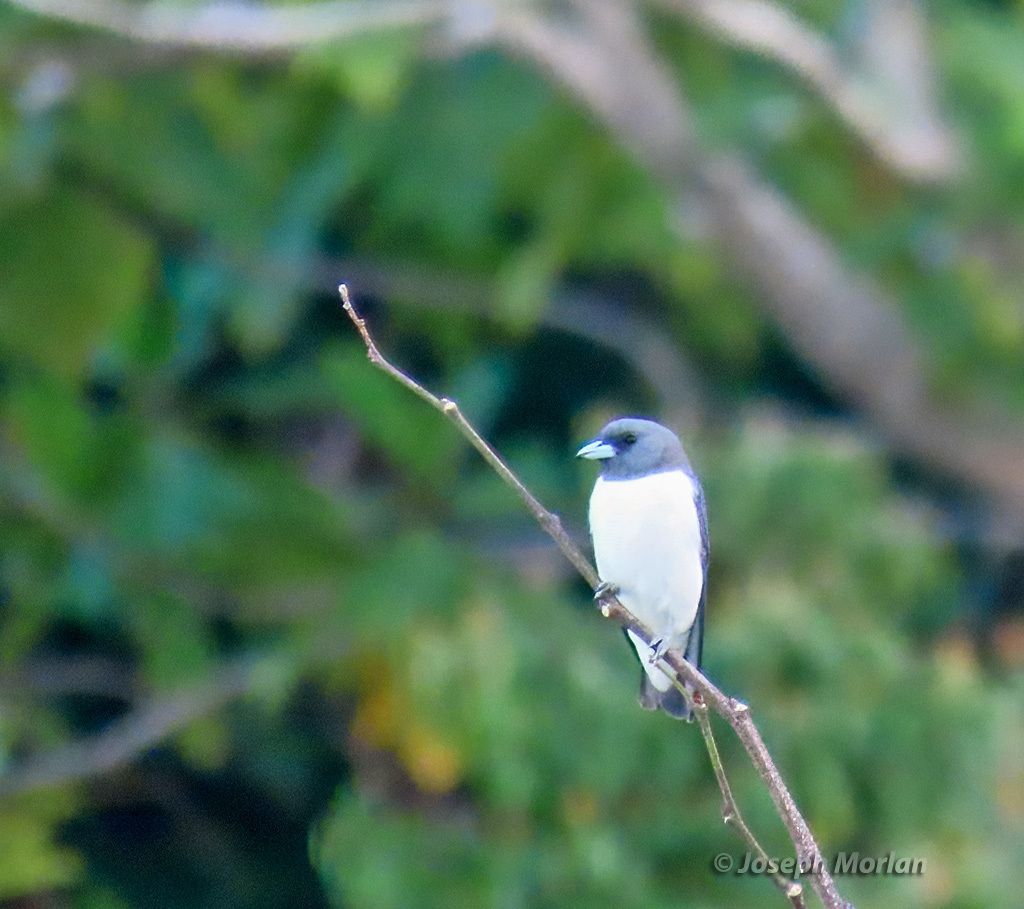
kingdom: Animalia
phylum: Chordata
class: Aves
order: Passeriformes
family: Artamidae
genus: Artamus
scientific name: Artamus leucoryn
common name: White-breasted woodswallow
